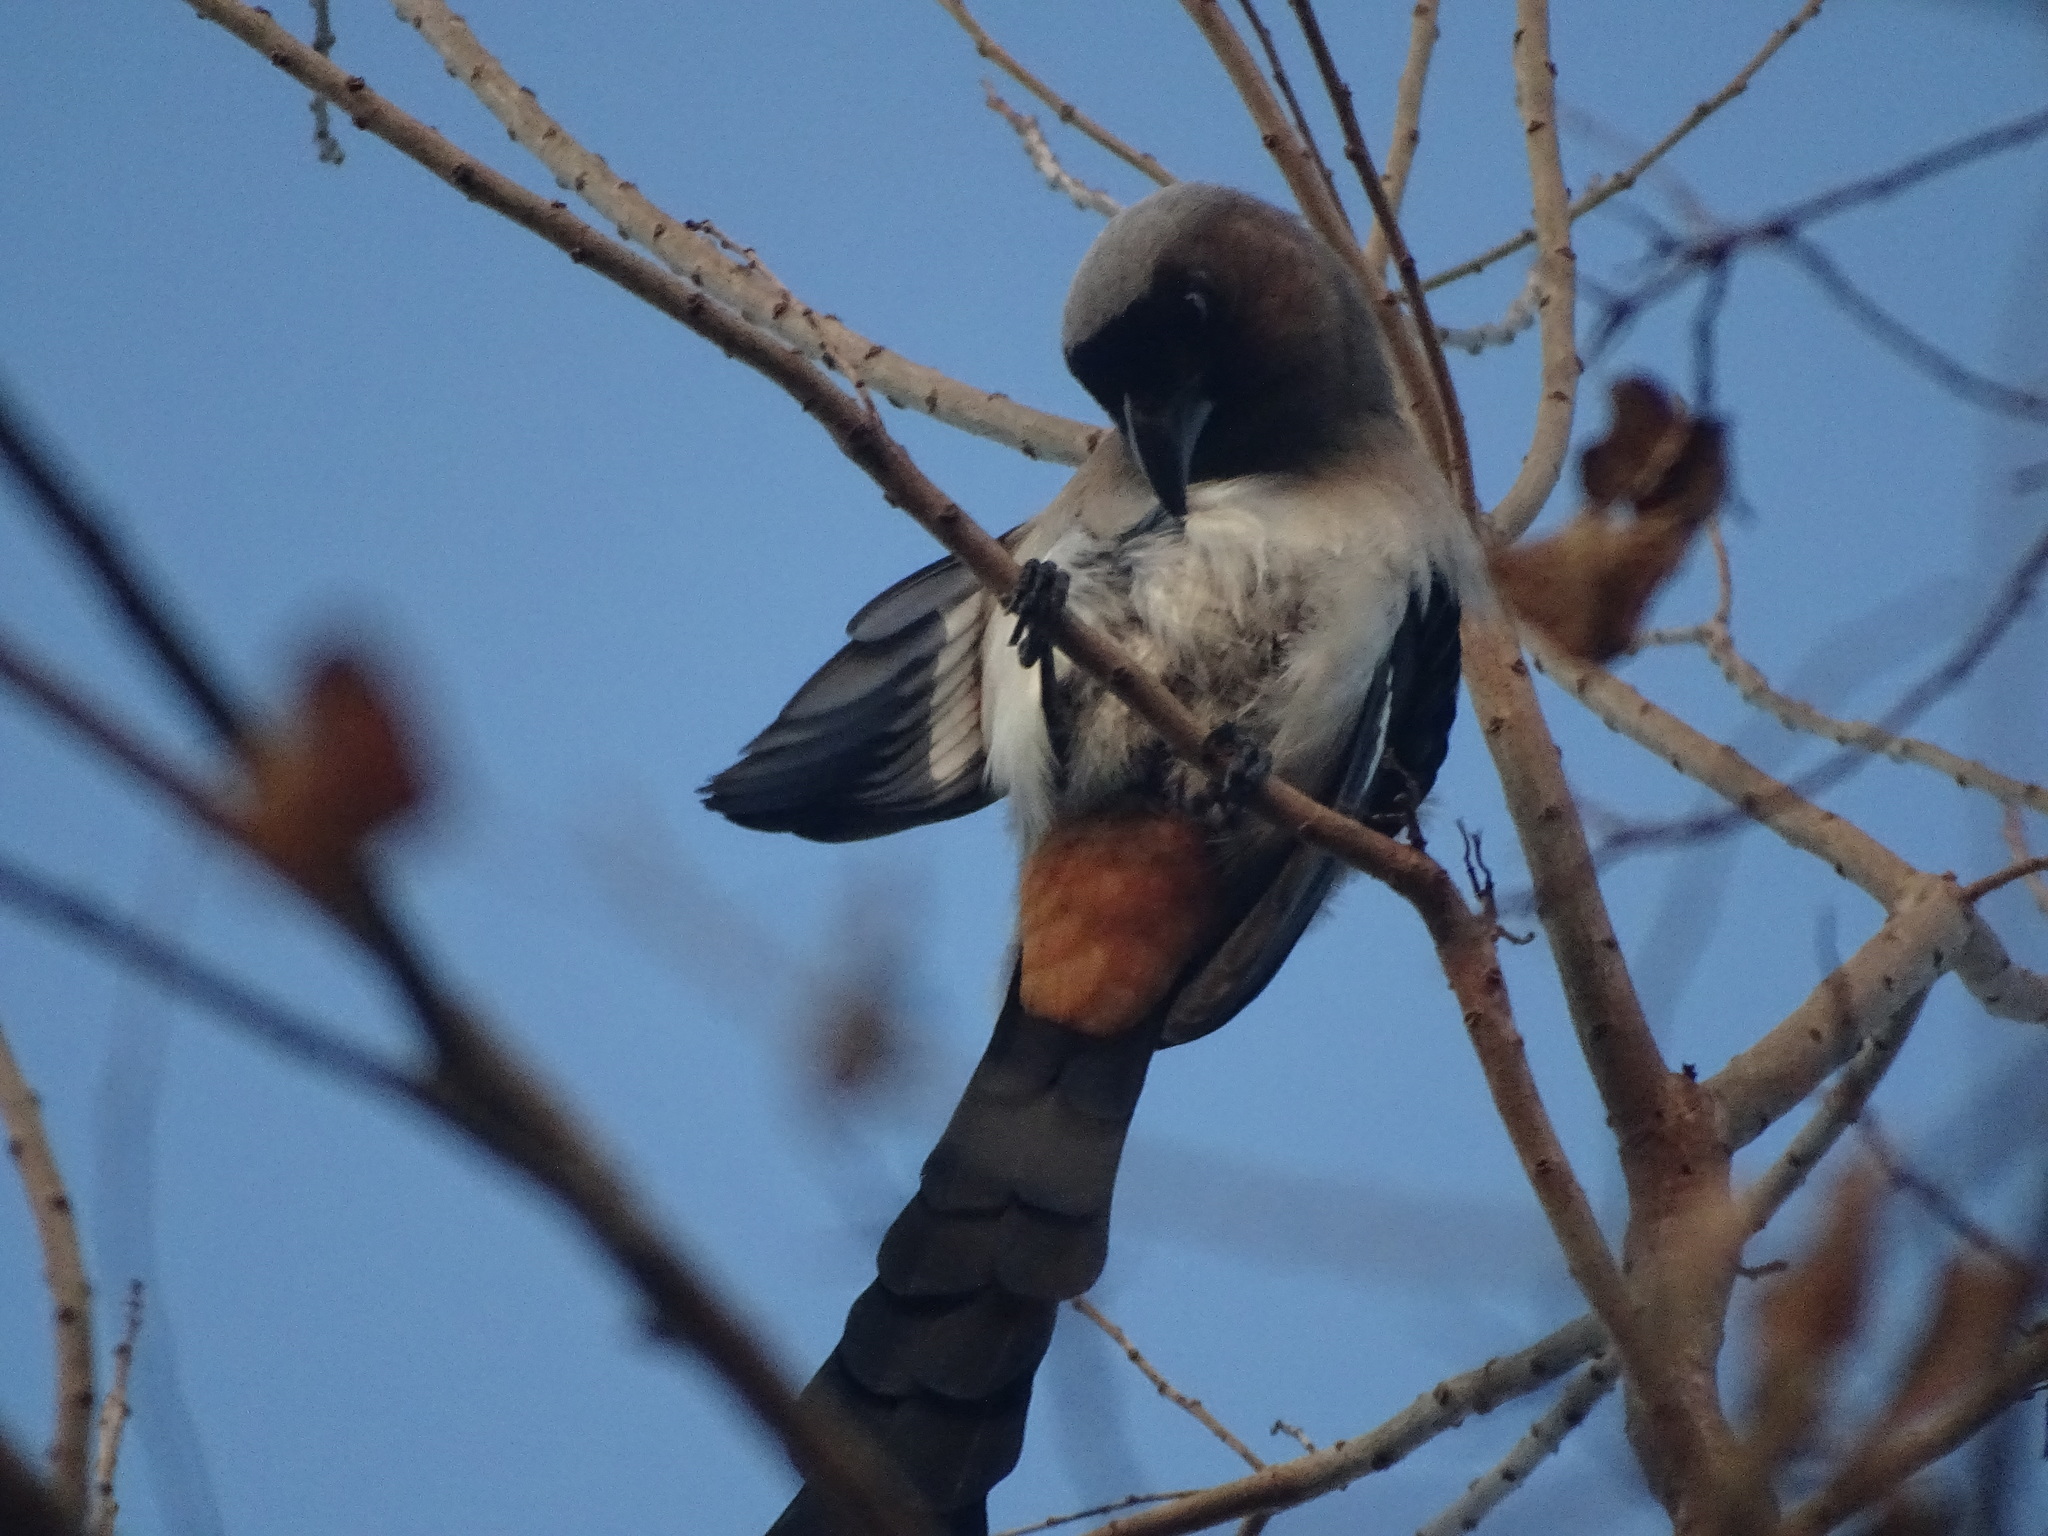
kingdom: Animalia
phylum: Chordata
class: Aves
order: Passeriformes
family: Corvidae
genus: Dendrocitta
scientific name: Dendrocitta formosae
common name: Grey treepie
